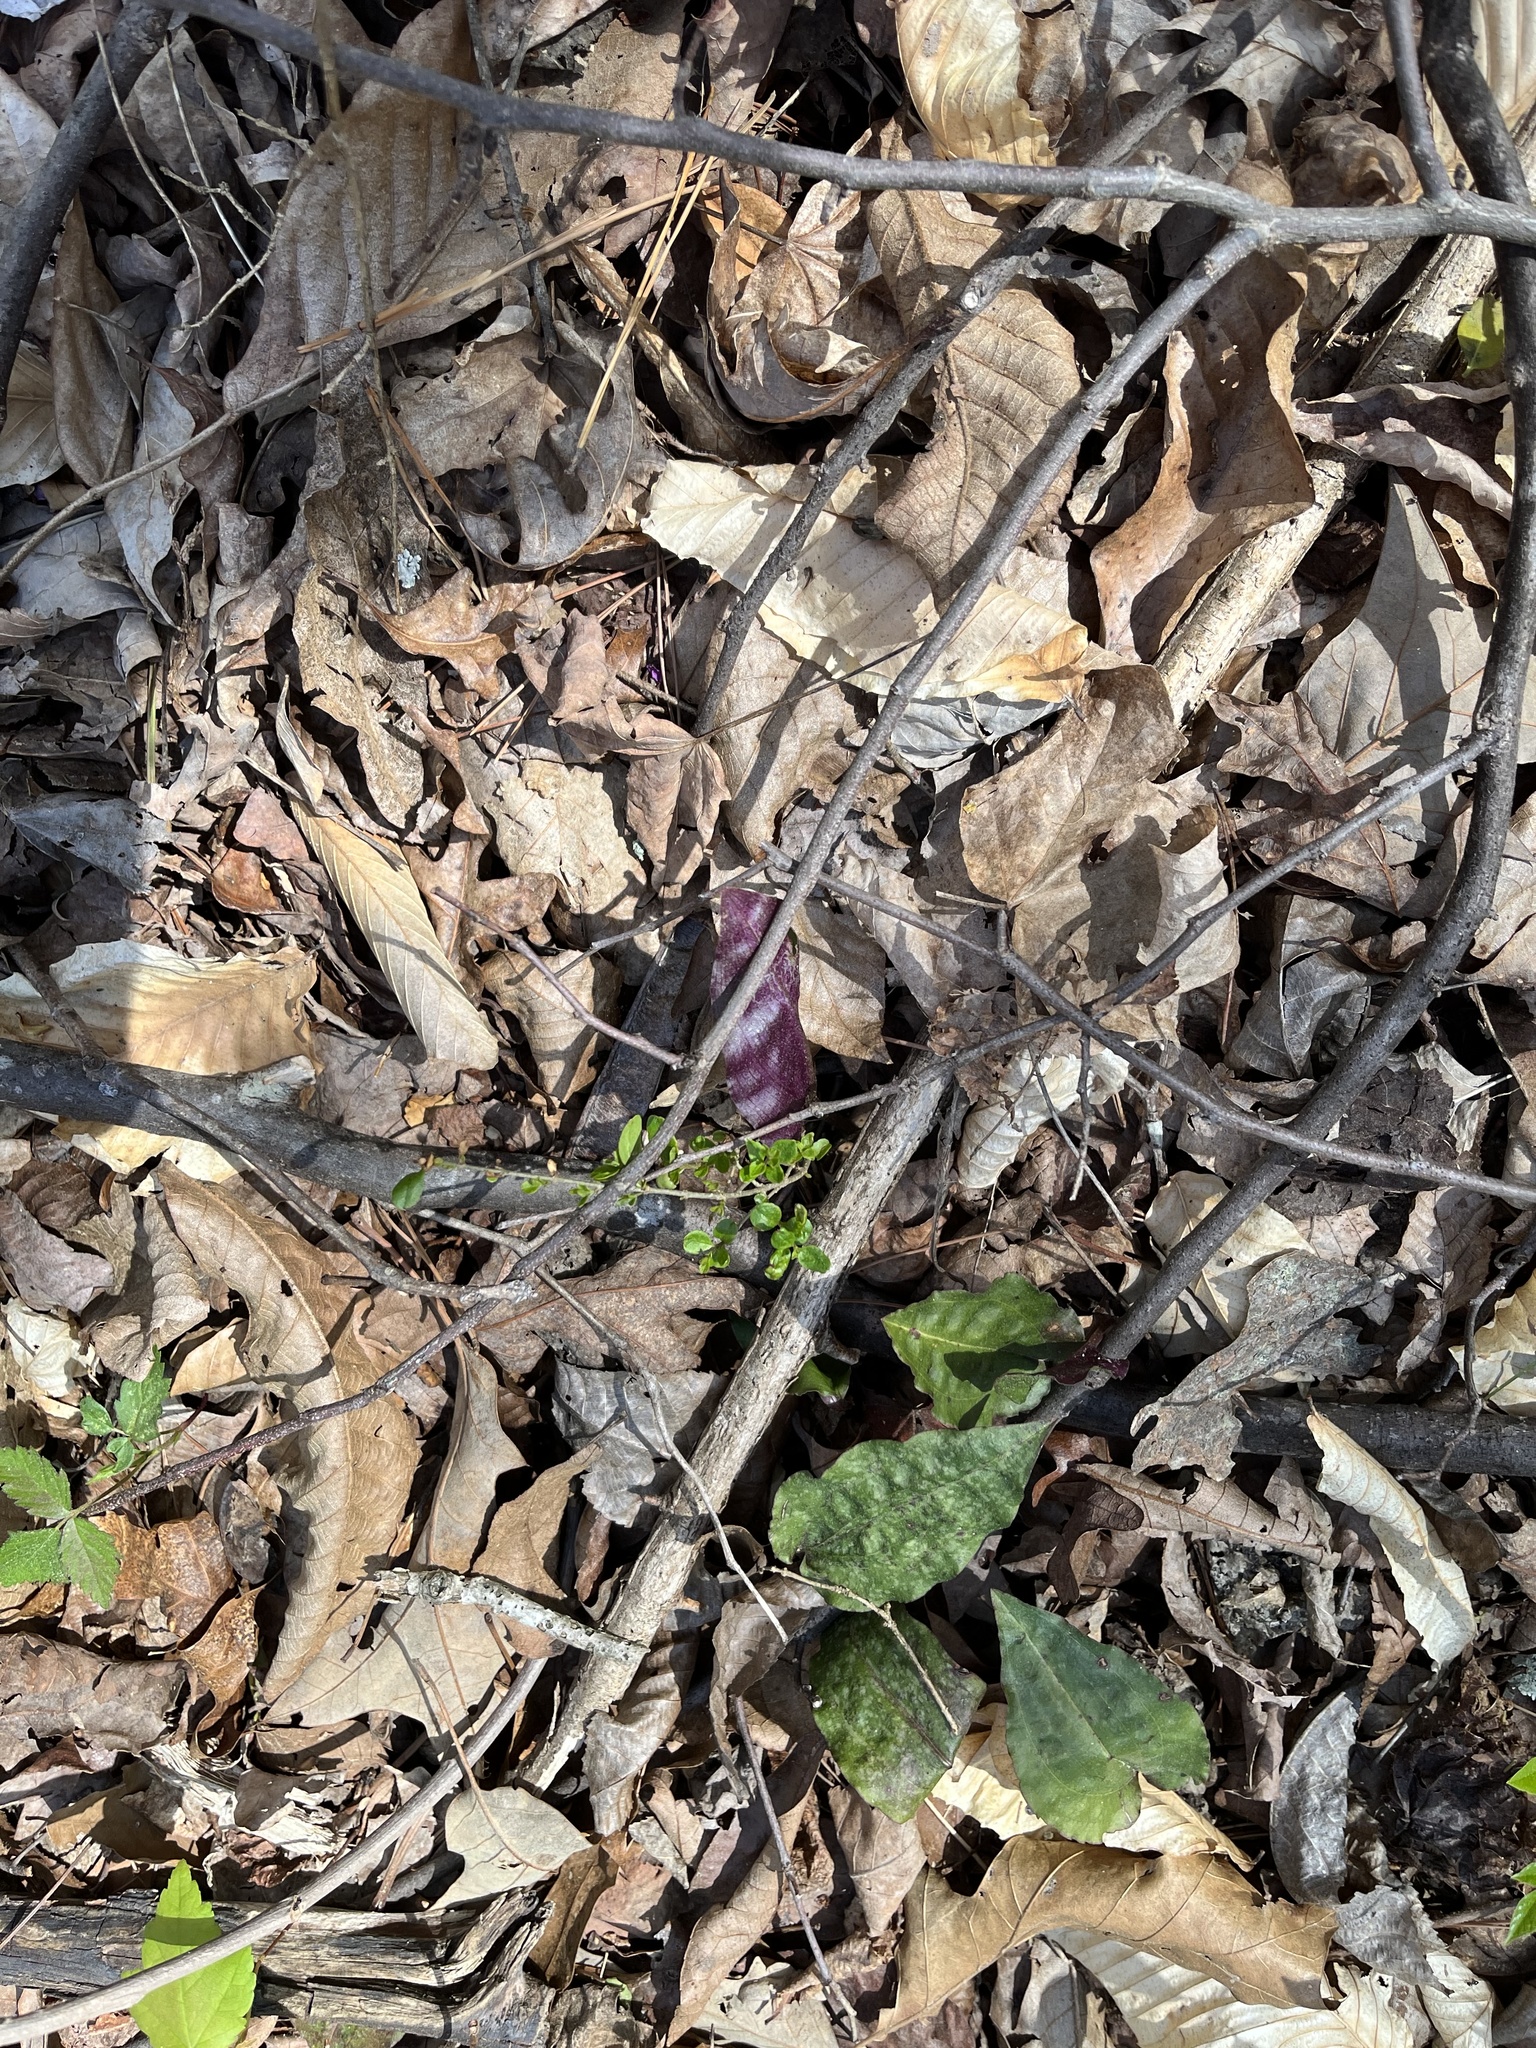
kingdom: Plantae
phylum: Tracheophyta
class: Liliopsida
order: Asparagales
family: Orchidaceae
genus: Tipularia
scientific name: Tipularia discolor
